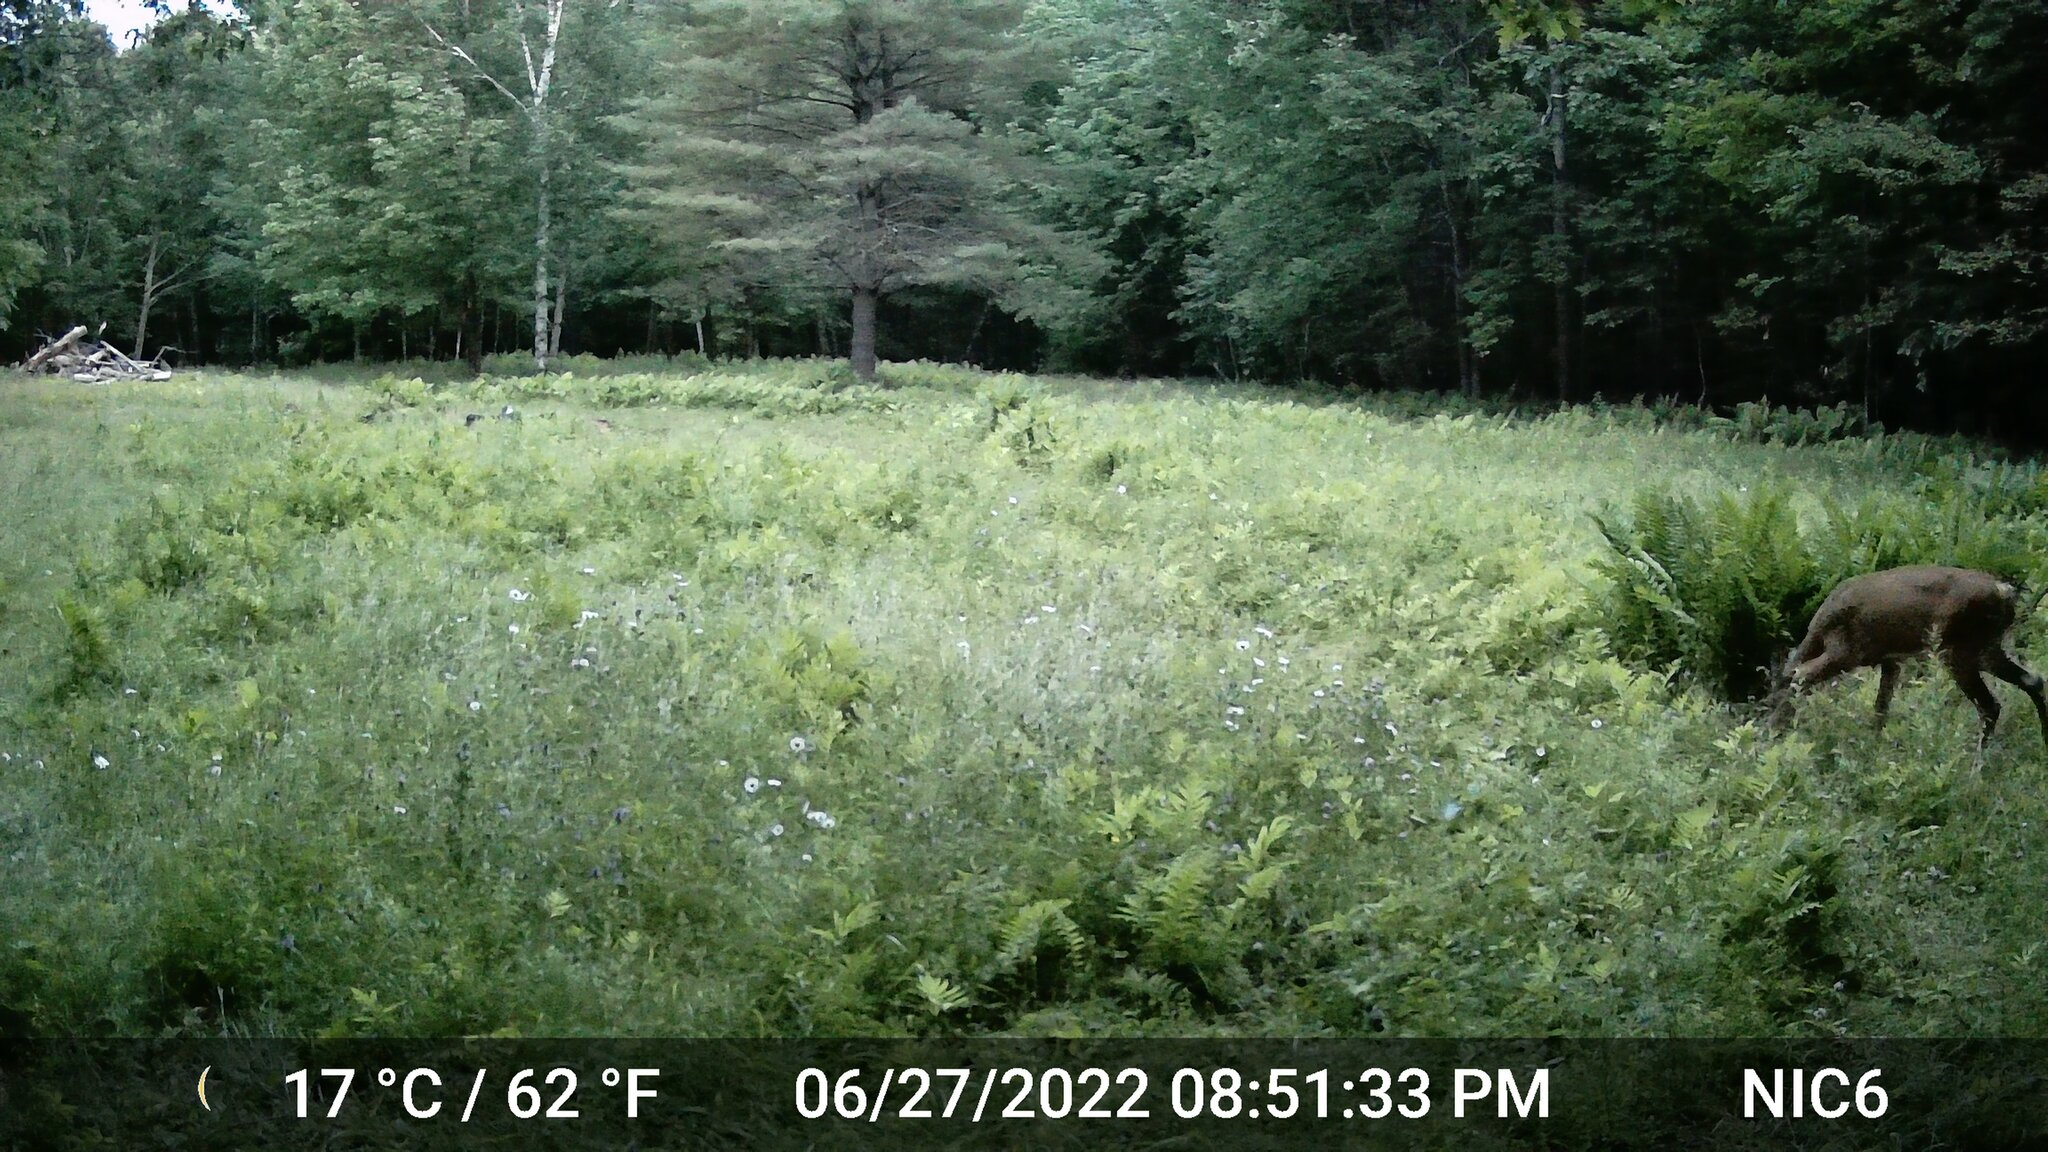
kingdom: Animalia
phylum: Chordata
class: Mammalia
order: Artiodactyla
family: Cervidae
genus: Odocoileus
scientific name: Odocoileus virginianus
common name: White-tailed deer
